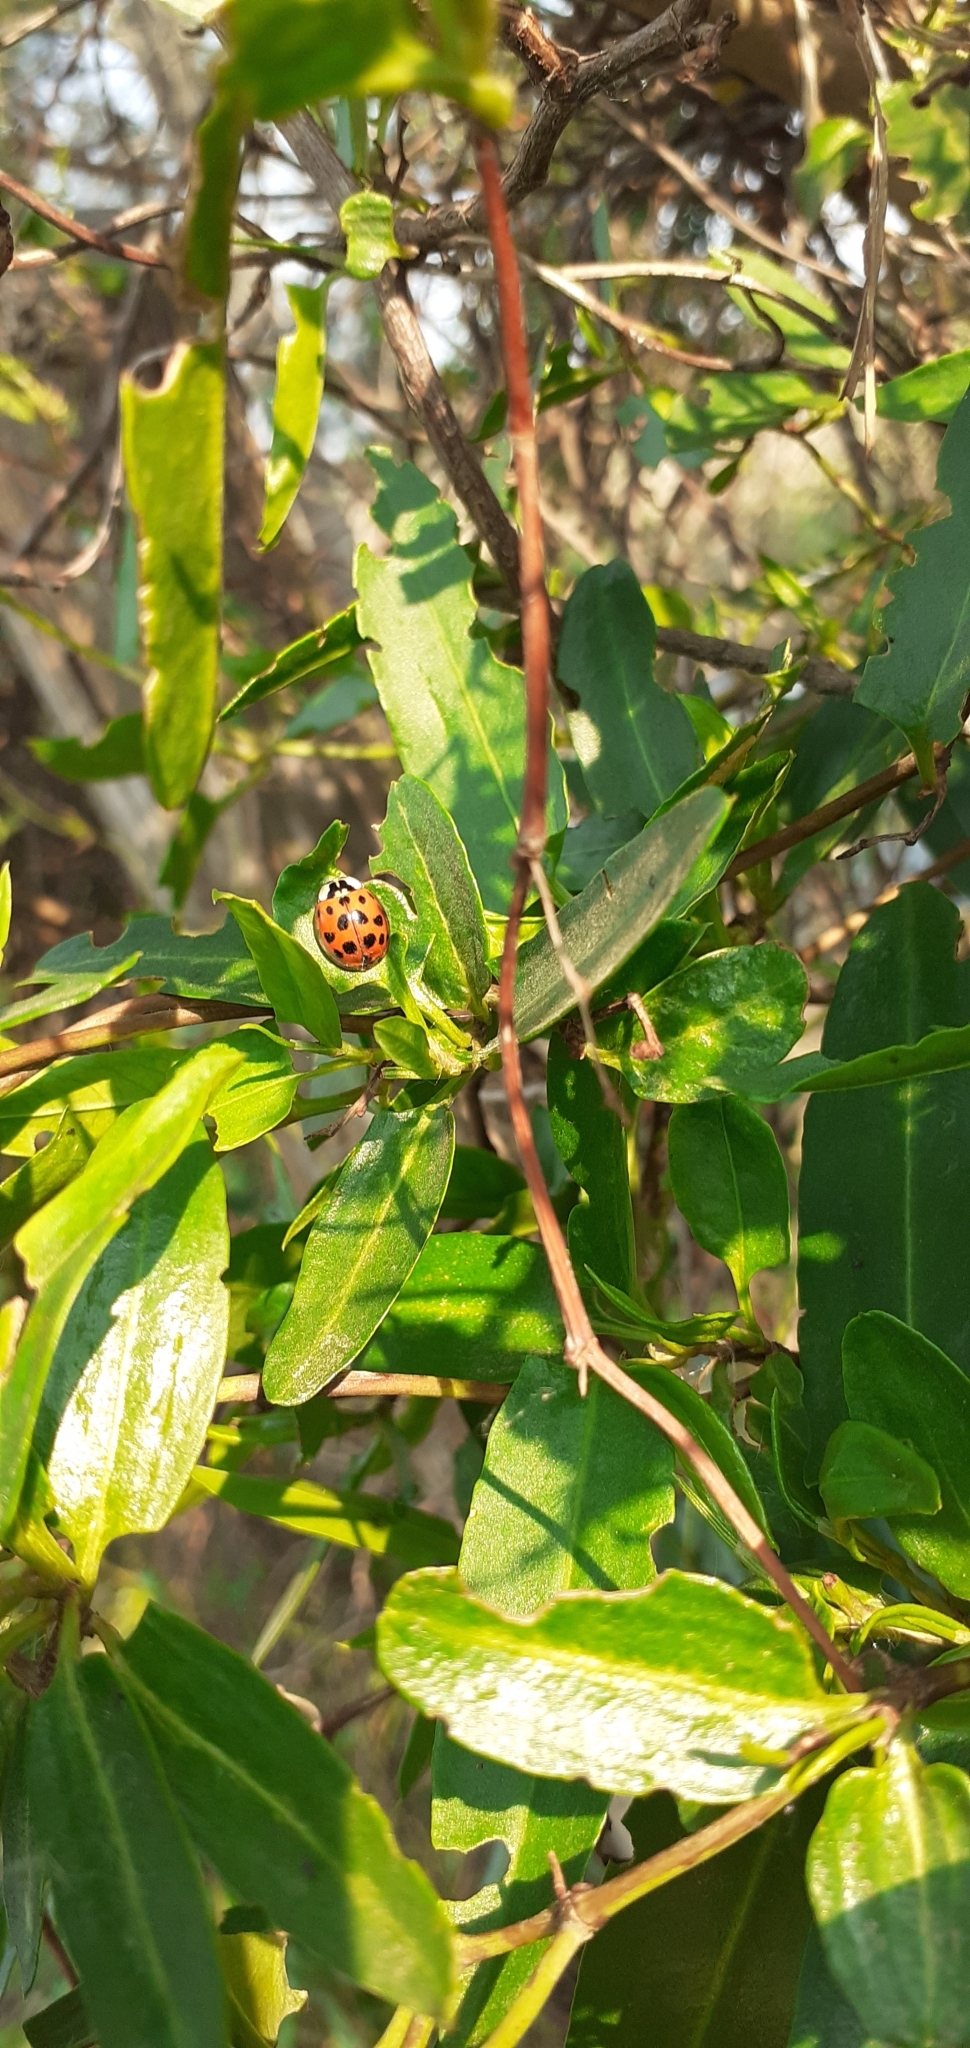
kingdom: Animalia
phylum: Arthropoda
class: Insecta
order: Coleoptera
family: Coccinellidae
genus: Harmonia
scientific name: Harmonia axyridis
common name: Harlequin ladybird
